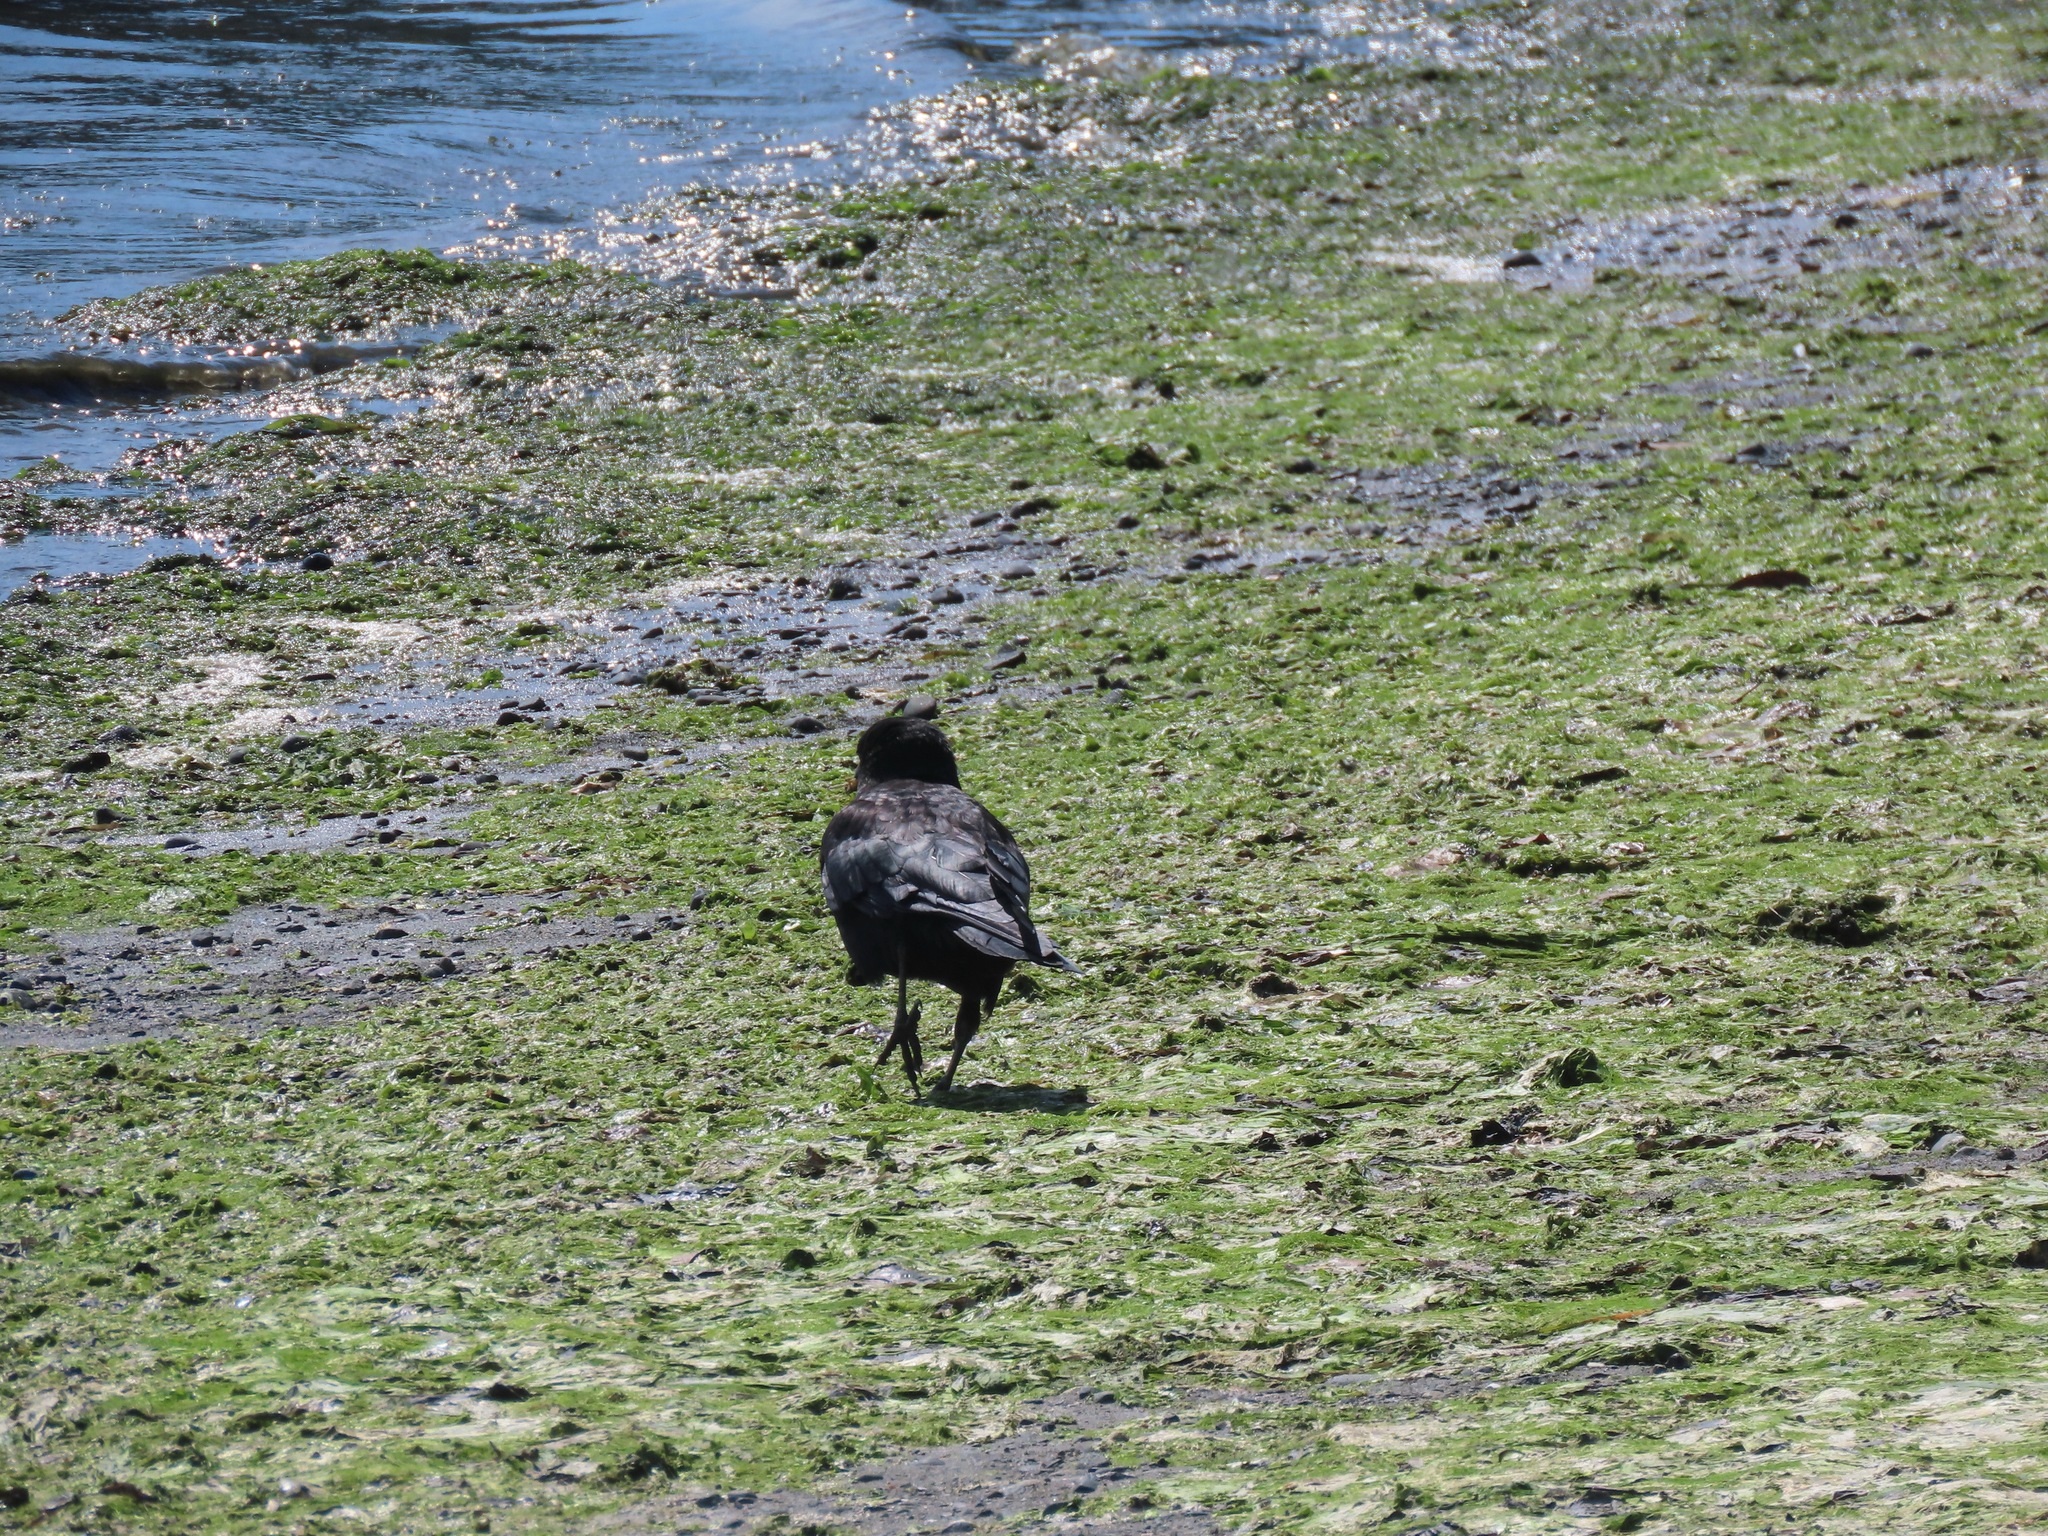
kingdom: Animalia
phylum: Chordata
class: Aves
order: Passeriformes
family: Corvidae
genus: Corvus
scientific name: Corvus brachyrhynchos
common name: American crow
